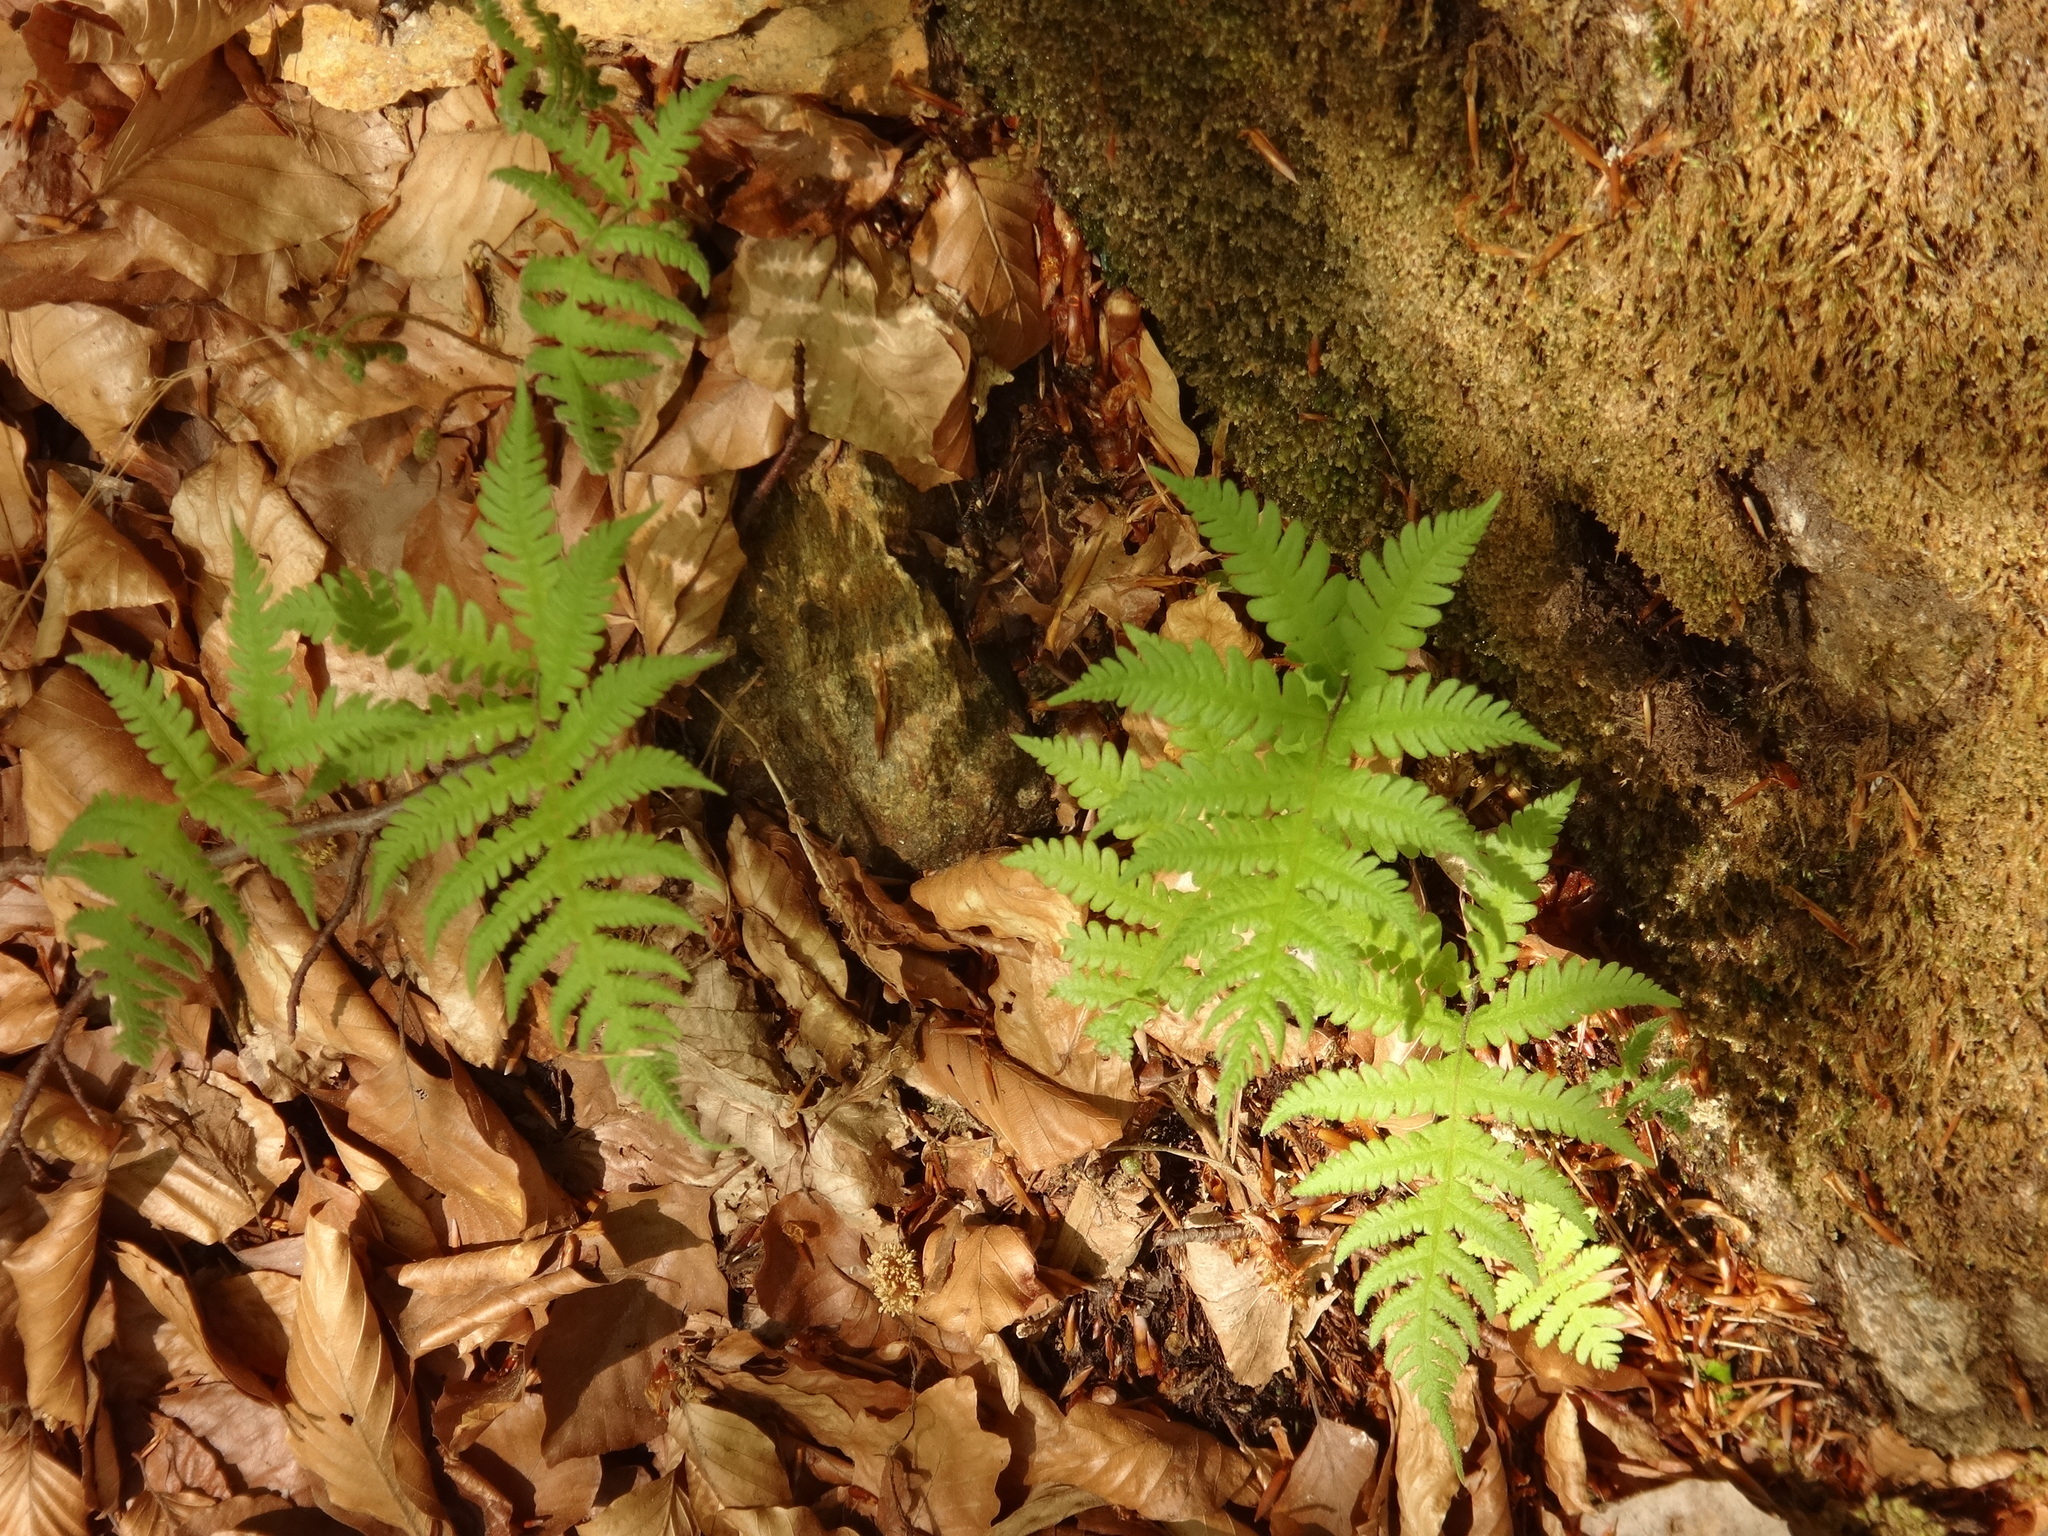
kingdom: Plantae
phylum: Tracheophyta
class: Polypodiopsida
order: Polypodiales
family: Thelypteridaceae
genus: Phegopteris
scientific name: Phegopteris connectilis
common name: Beech fern
